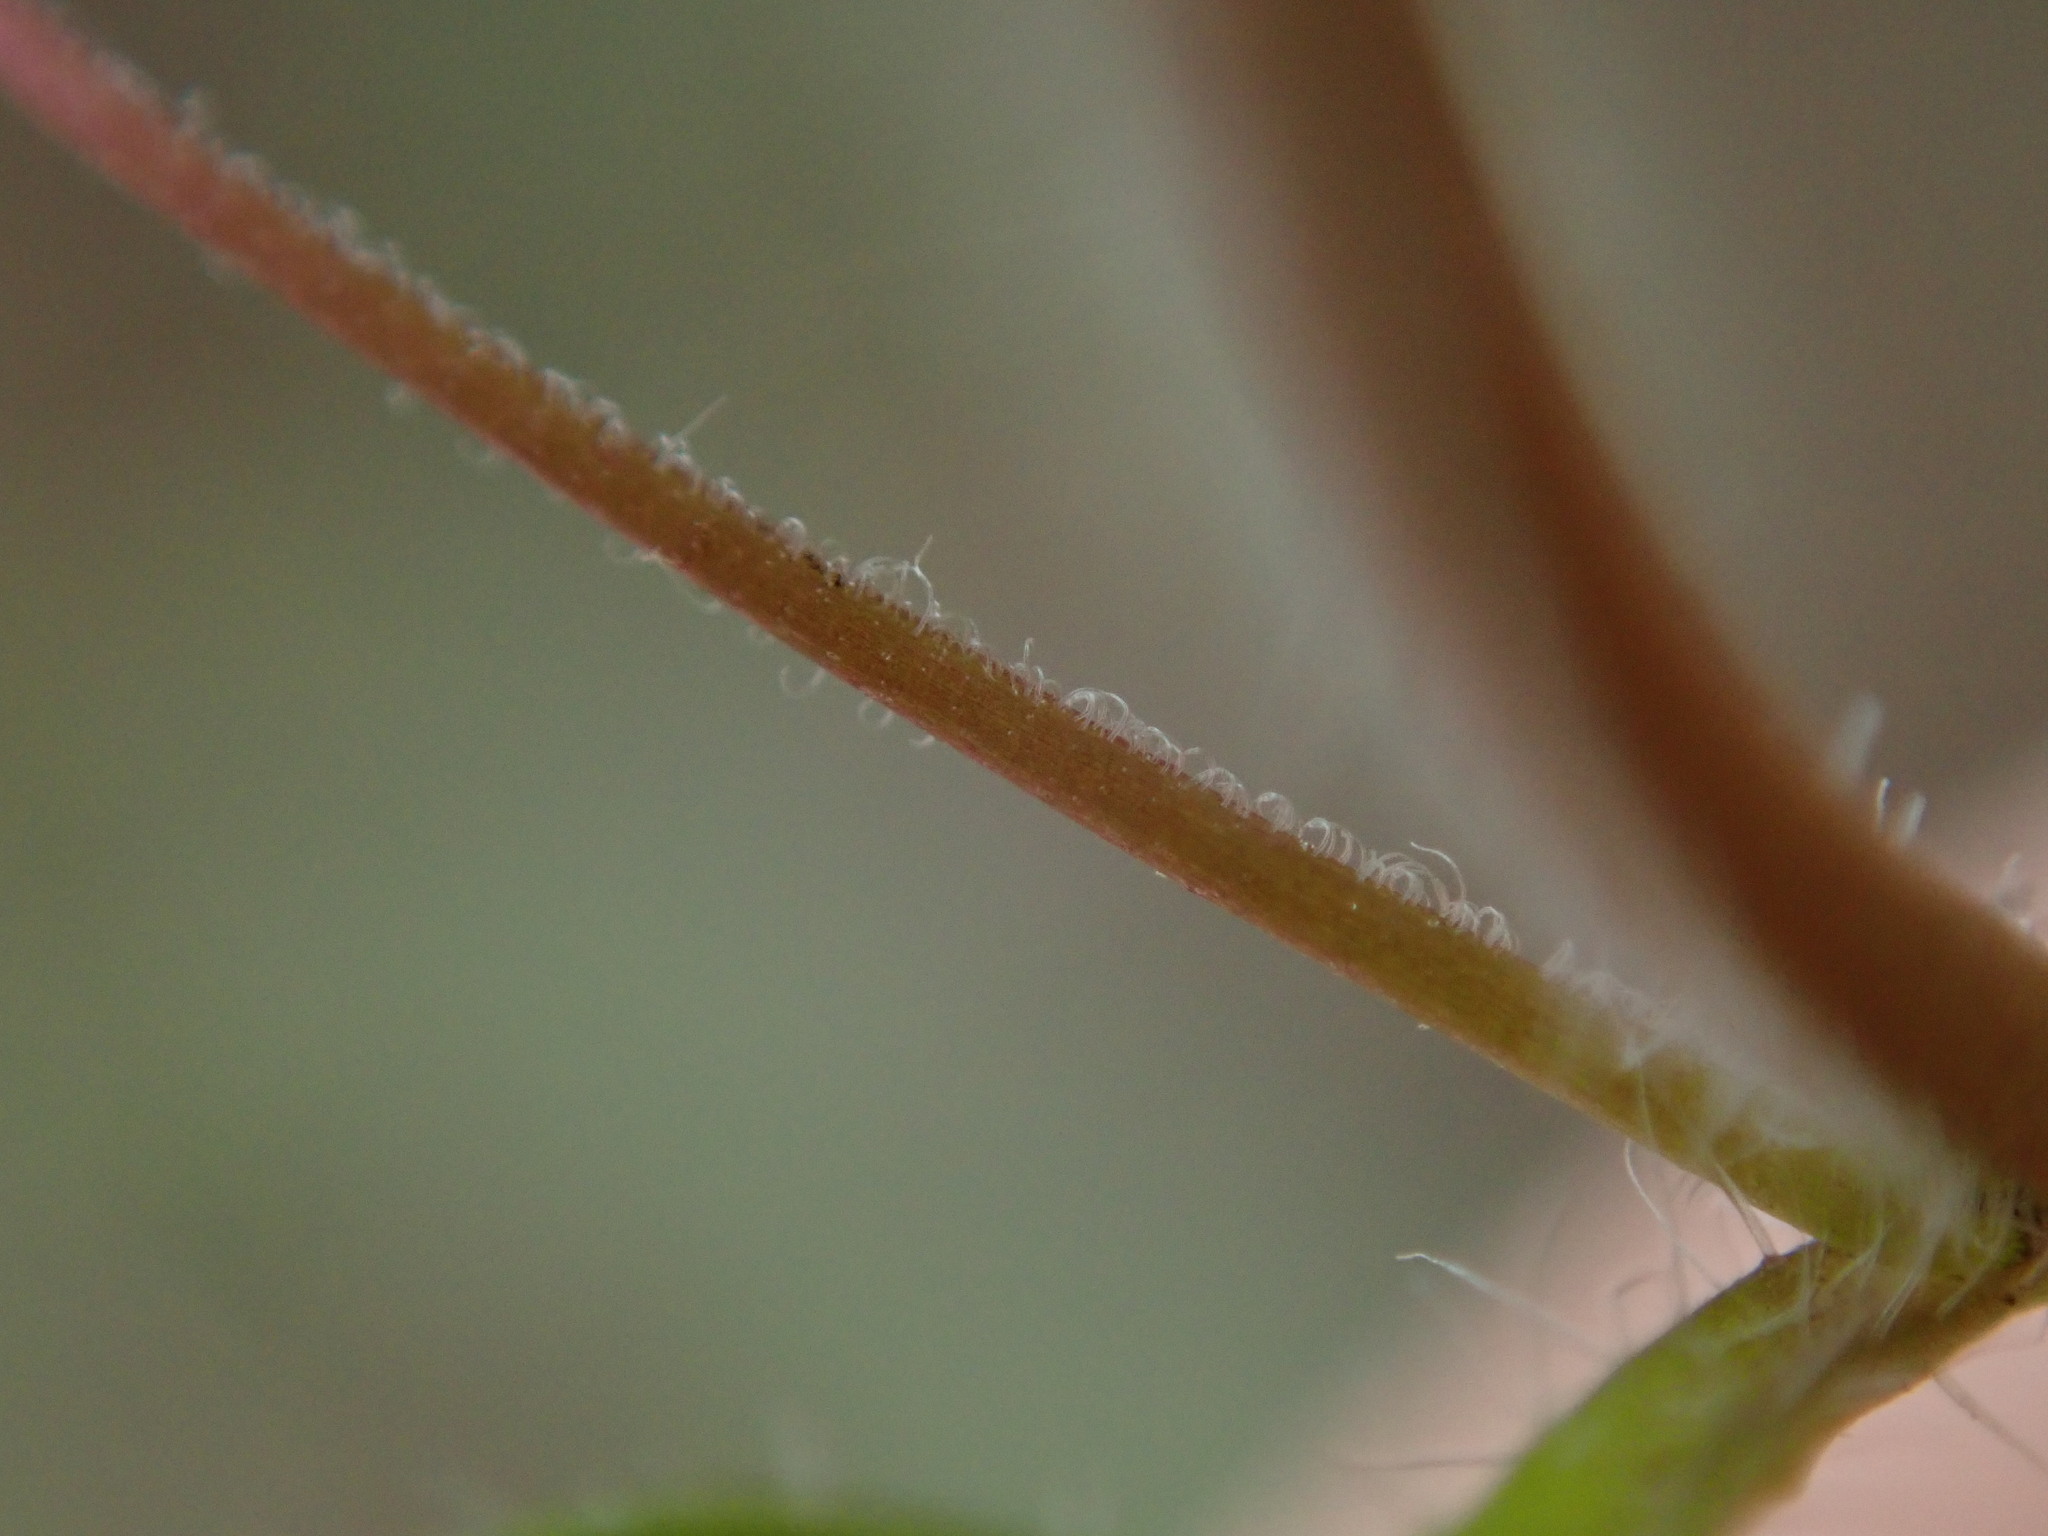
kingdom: Plantae
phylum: Tracheophyta
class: Magnoliopsida
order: Lamiales
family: Plantaginaceae
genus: Veronica
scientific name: Veronica hederifolia
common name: Ivy-leaved speedwell
